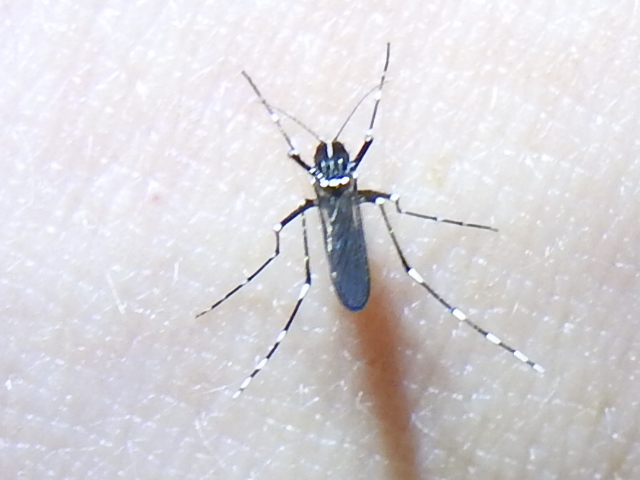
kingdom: Animalia
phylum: Arthropoda
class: Insecta
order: Diptera
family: Culicidae
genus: Aedes
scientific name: Aedes albopictus
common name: Tiger mosquito
